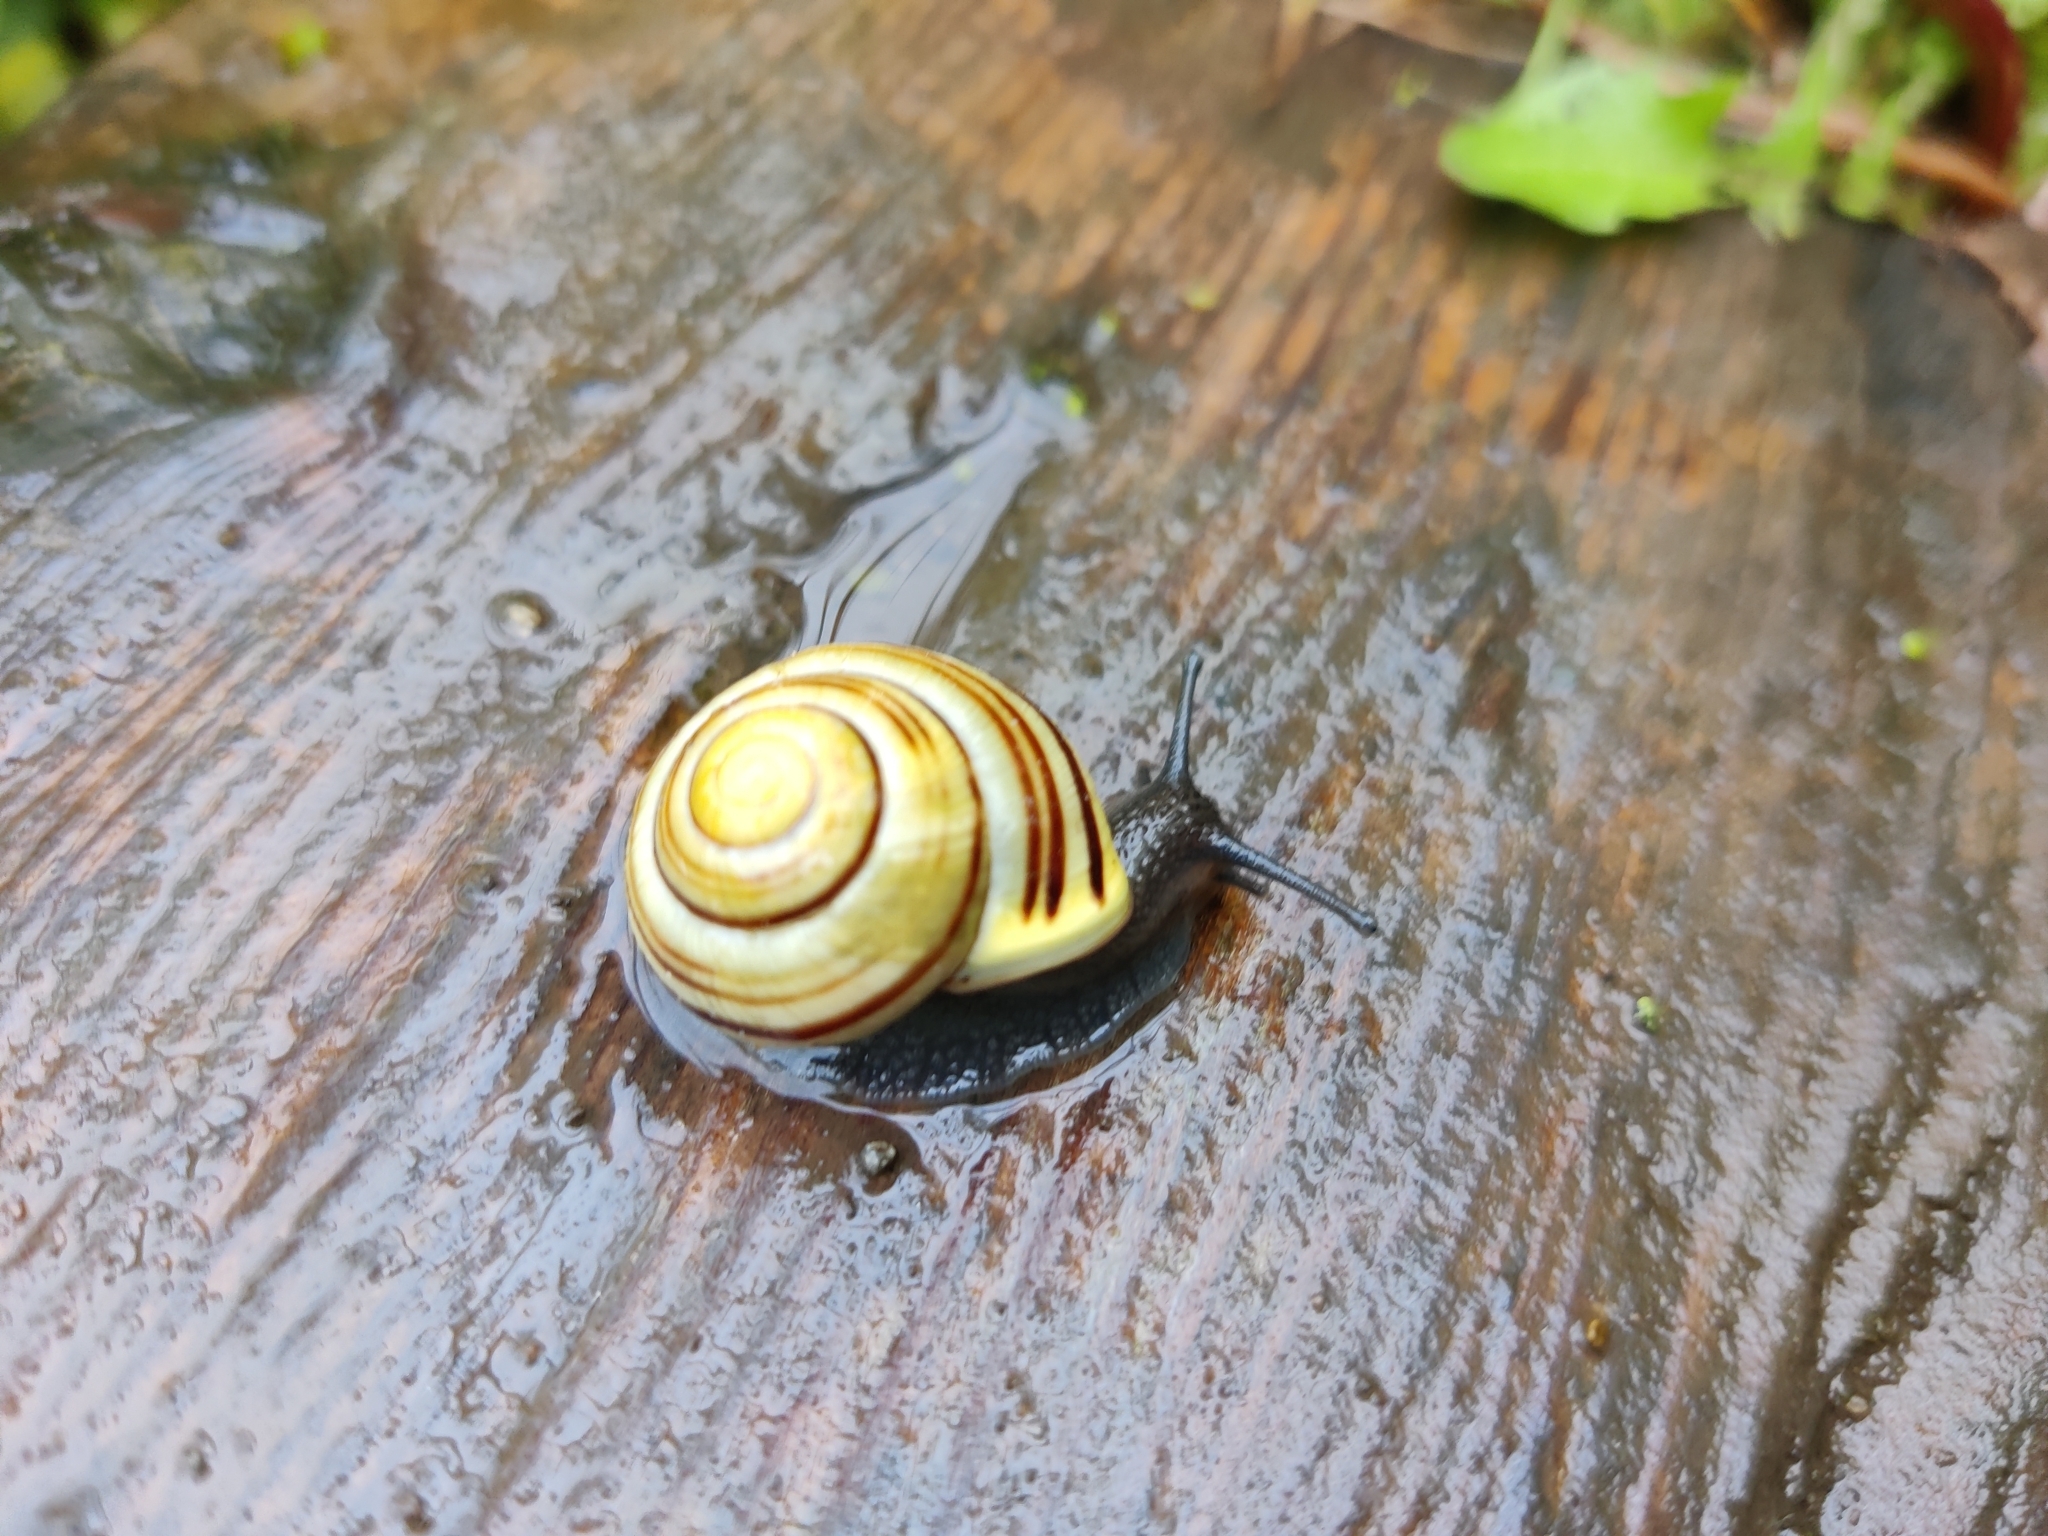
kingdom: Animalia
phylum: Mollusca
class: Gastropoda
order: Stylommatophora
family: Helicidae
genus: Cepaea
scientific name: Cepaea hortensis
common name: White-lip gardensnail
